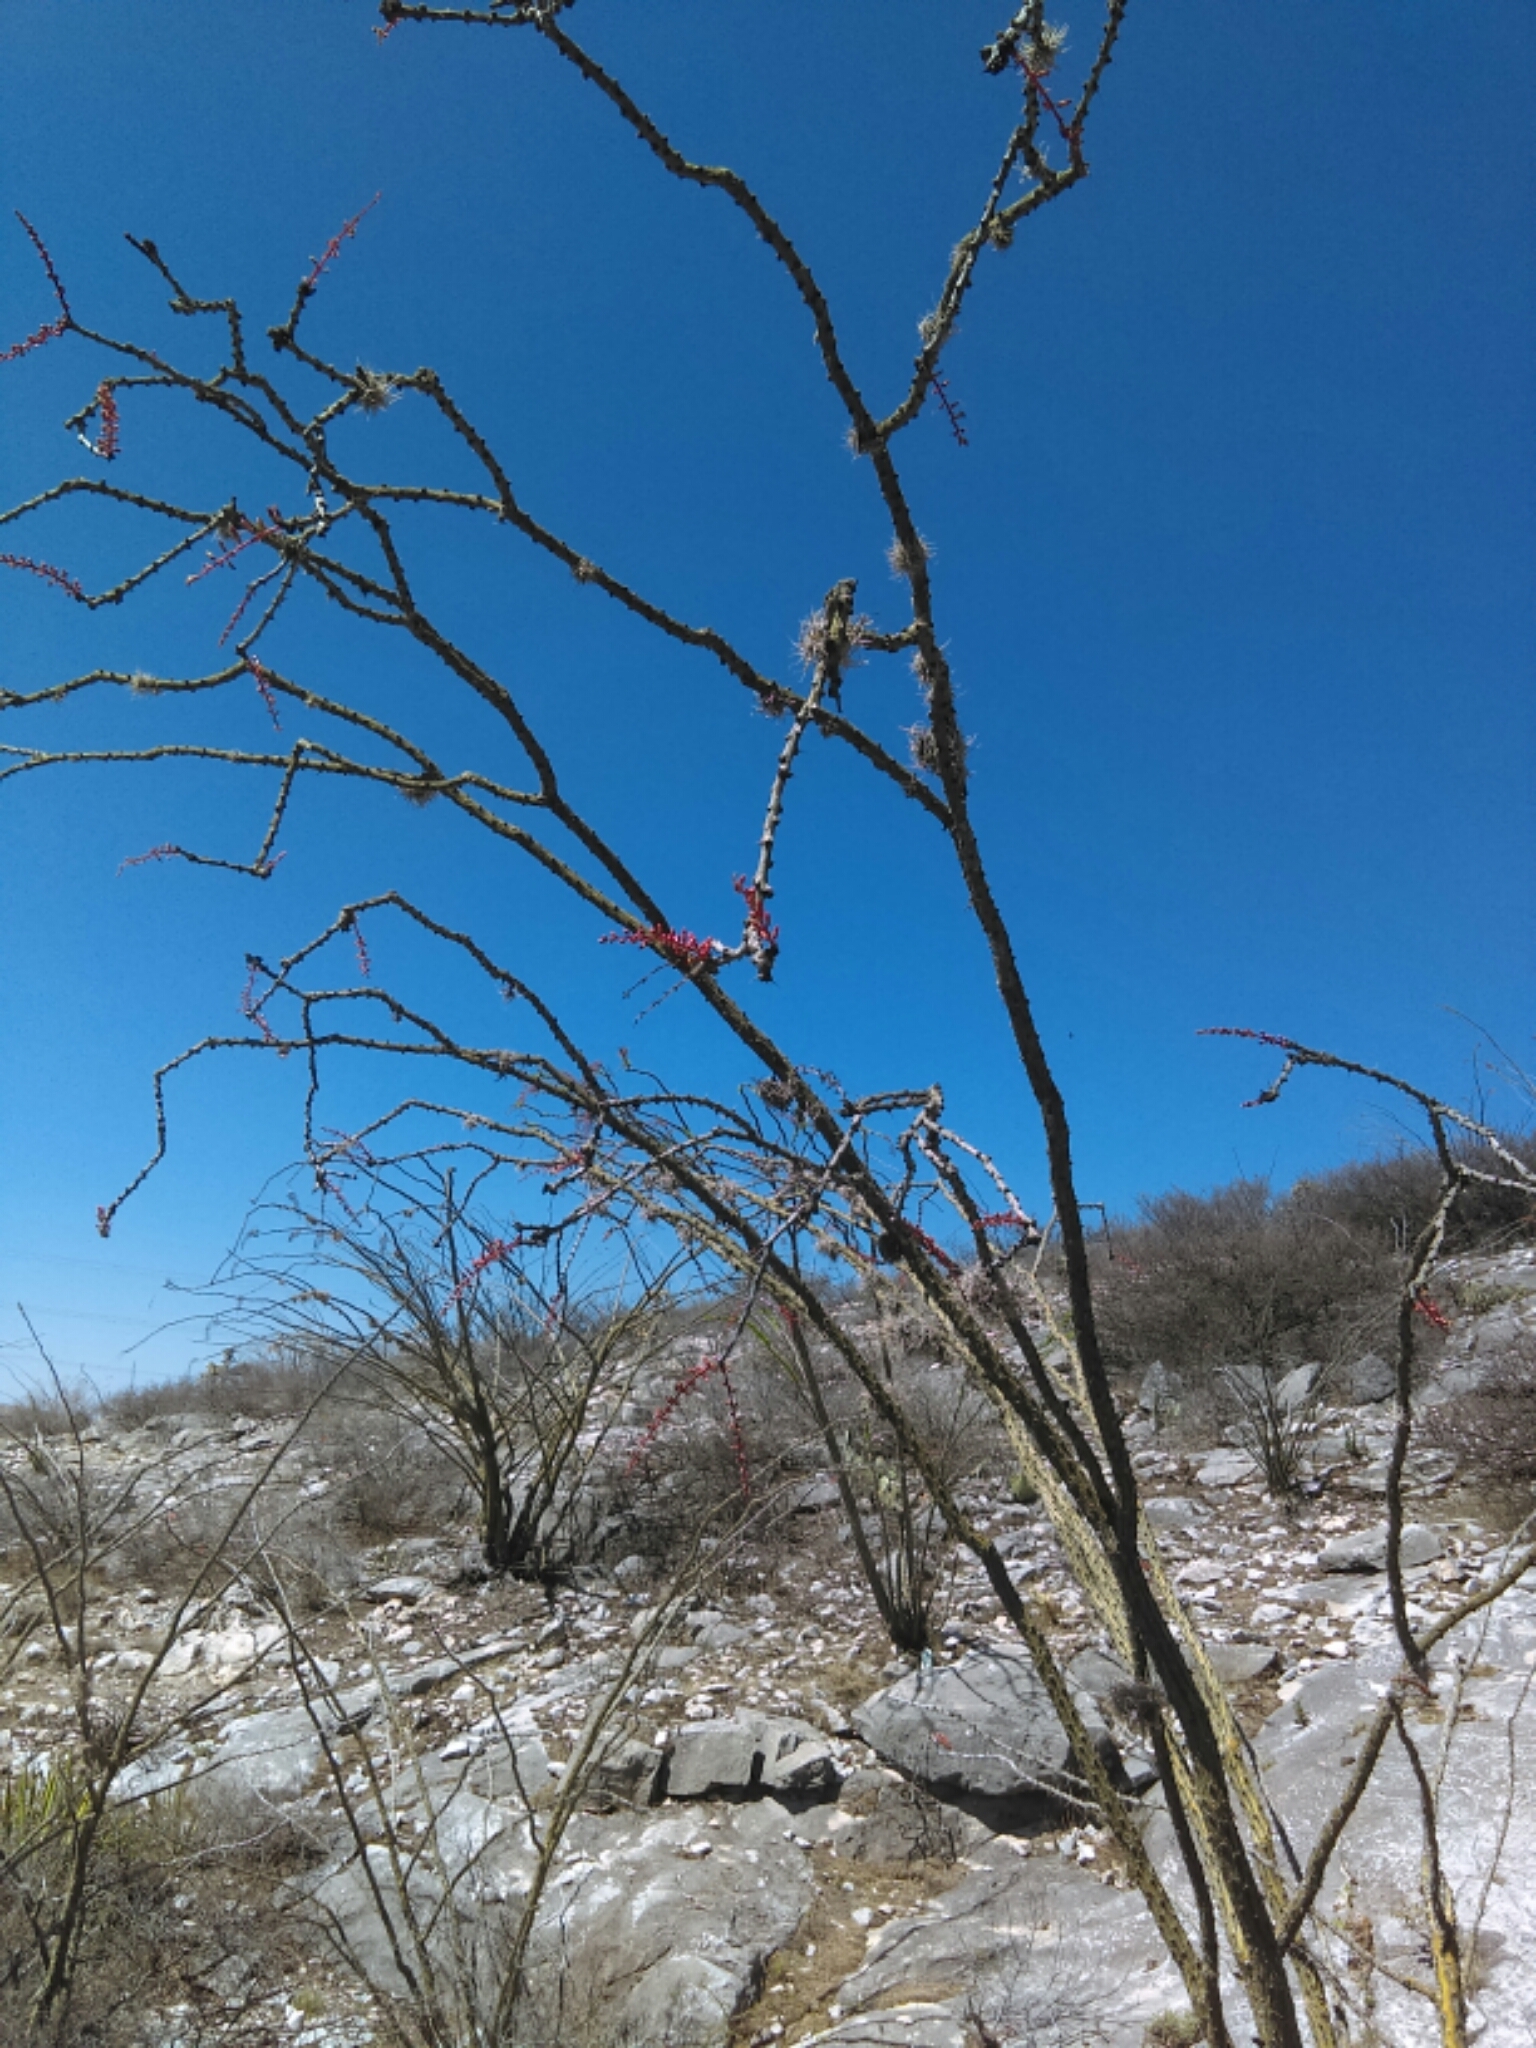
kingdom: Plantae
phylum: Tracheophyta
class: Magnoliopsida
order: Ericales
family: Fouquieriaceae
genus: Fouquieria
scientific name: Fouquieria splendens
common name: Vine-cactus
